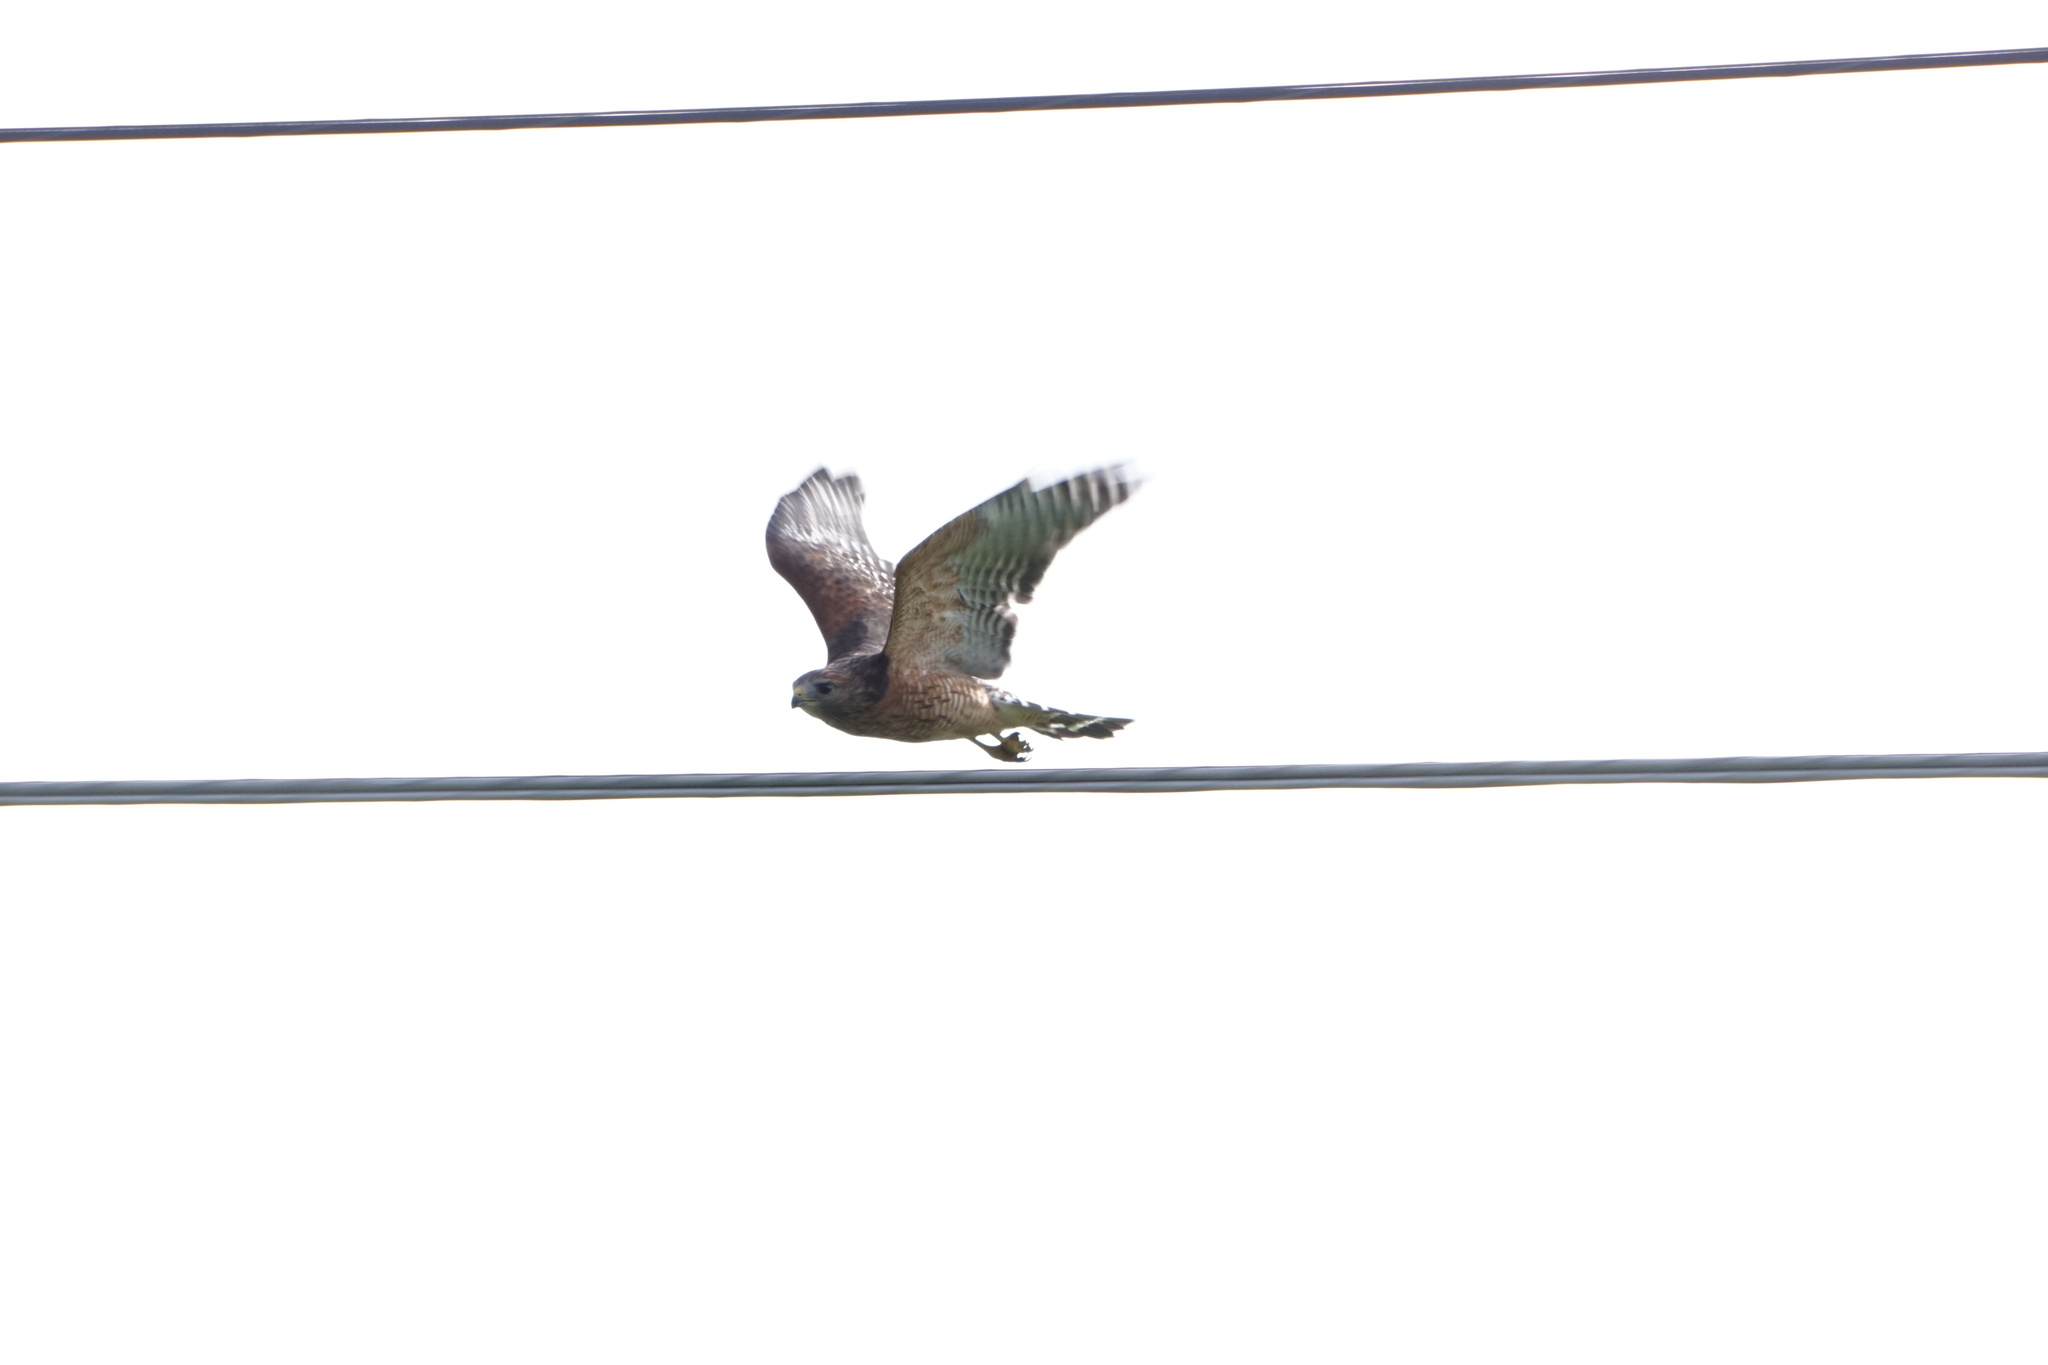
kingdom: Animalia
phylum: Chordata
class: Aves
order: Accipitriformes
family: Accipitridae
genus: Buteo
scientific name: Buteo lineatus
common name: Red-shouldered hawk
